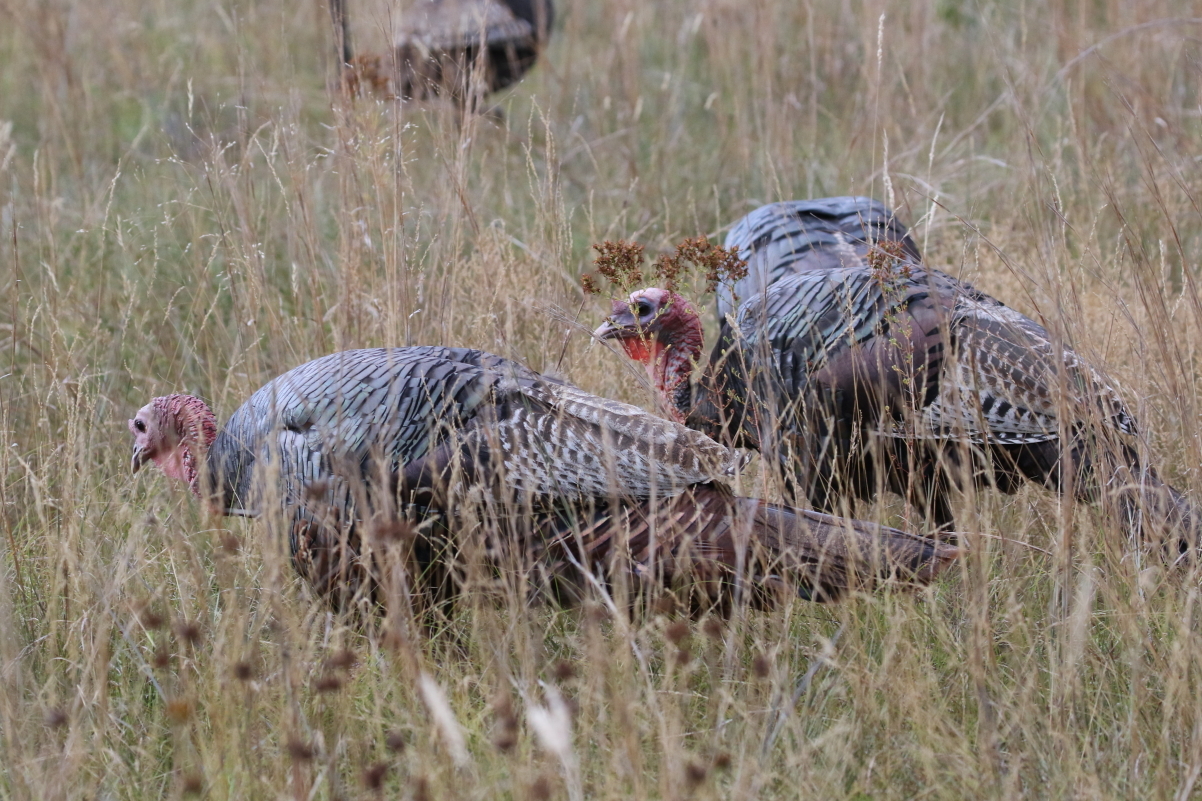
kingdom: Animalia
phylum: Chordata
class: Aves
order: Galliformes
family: Phasianidae
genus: Meleagris
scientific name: Meleagris gallopavo
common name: Wild turkey
